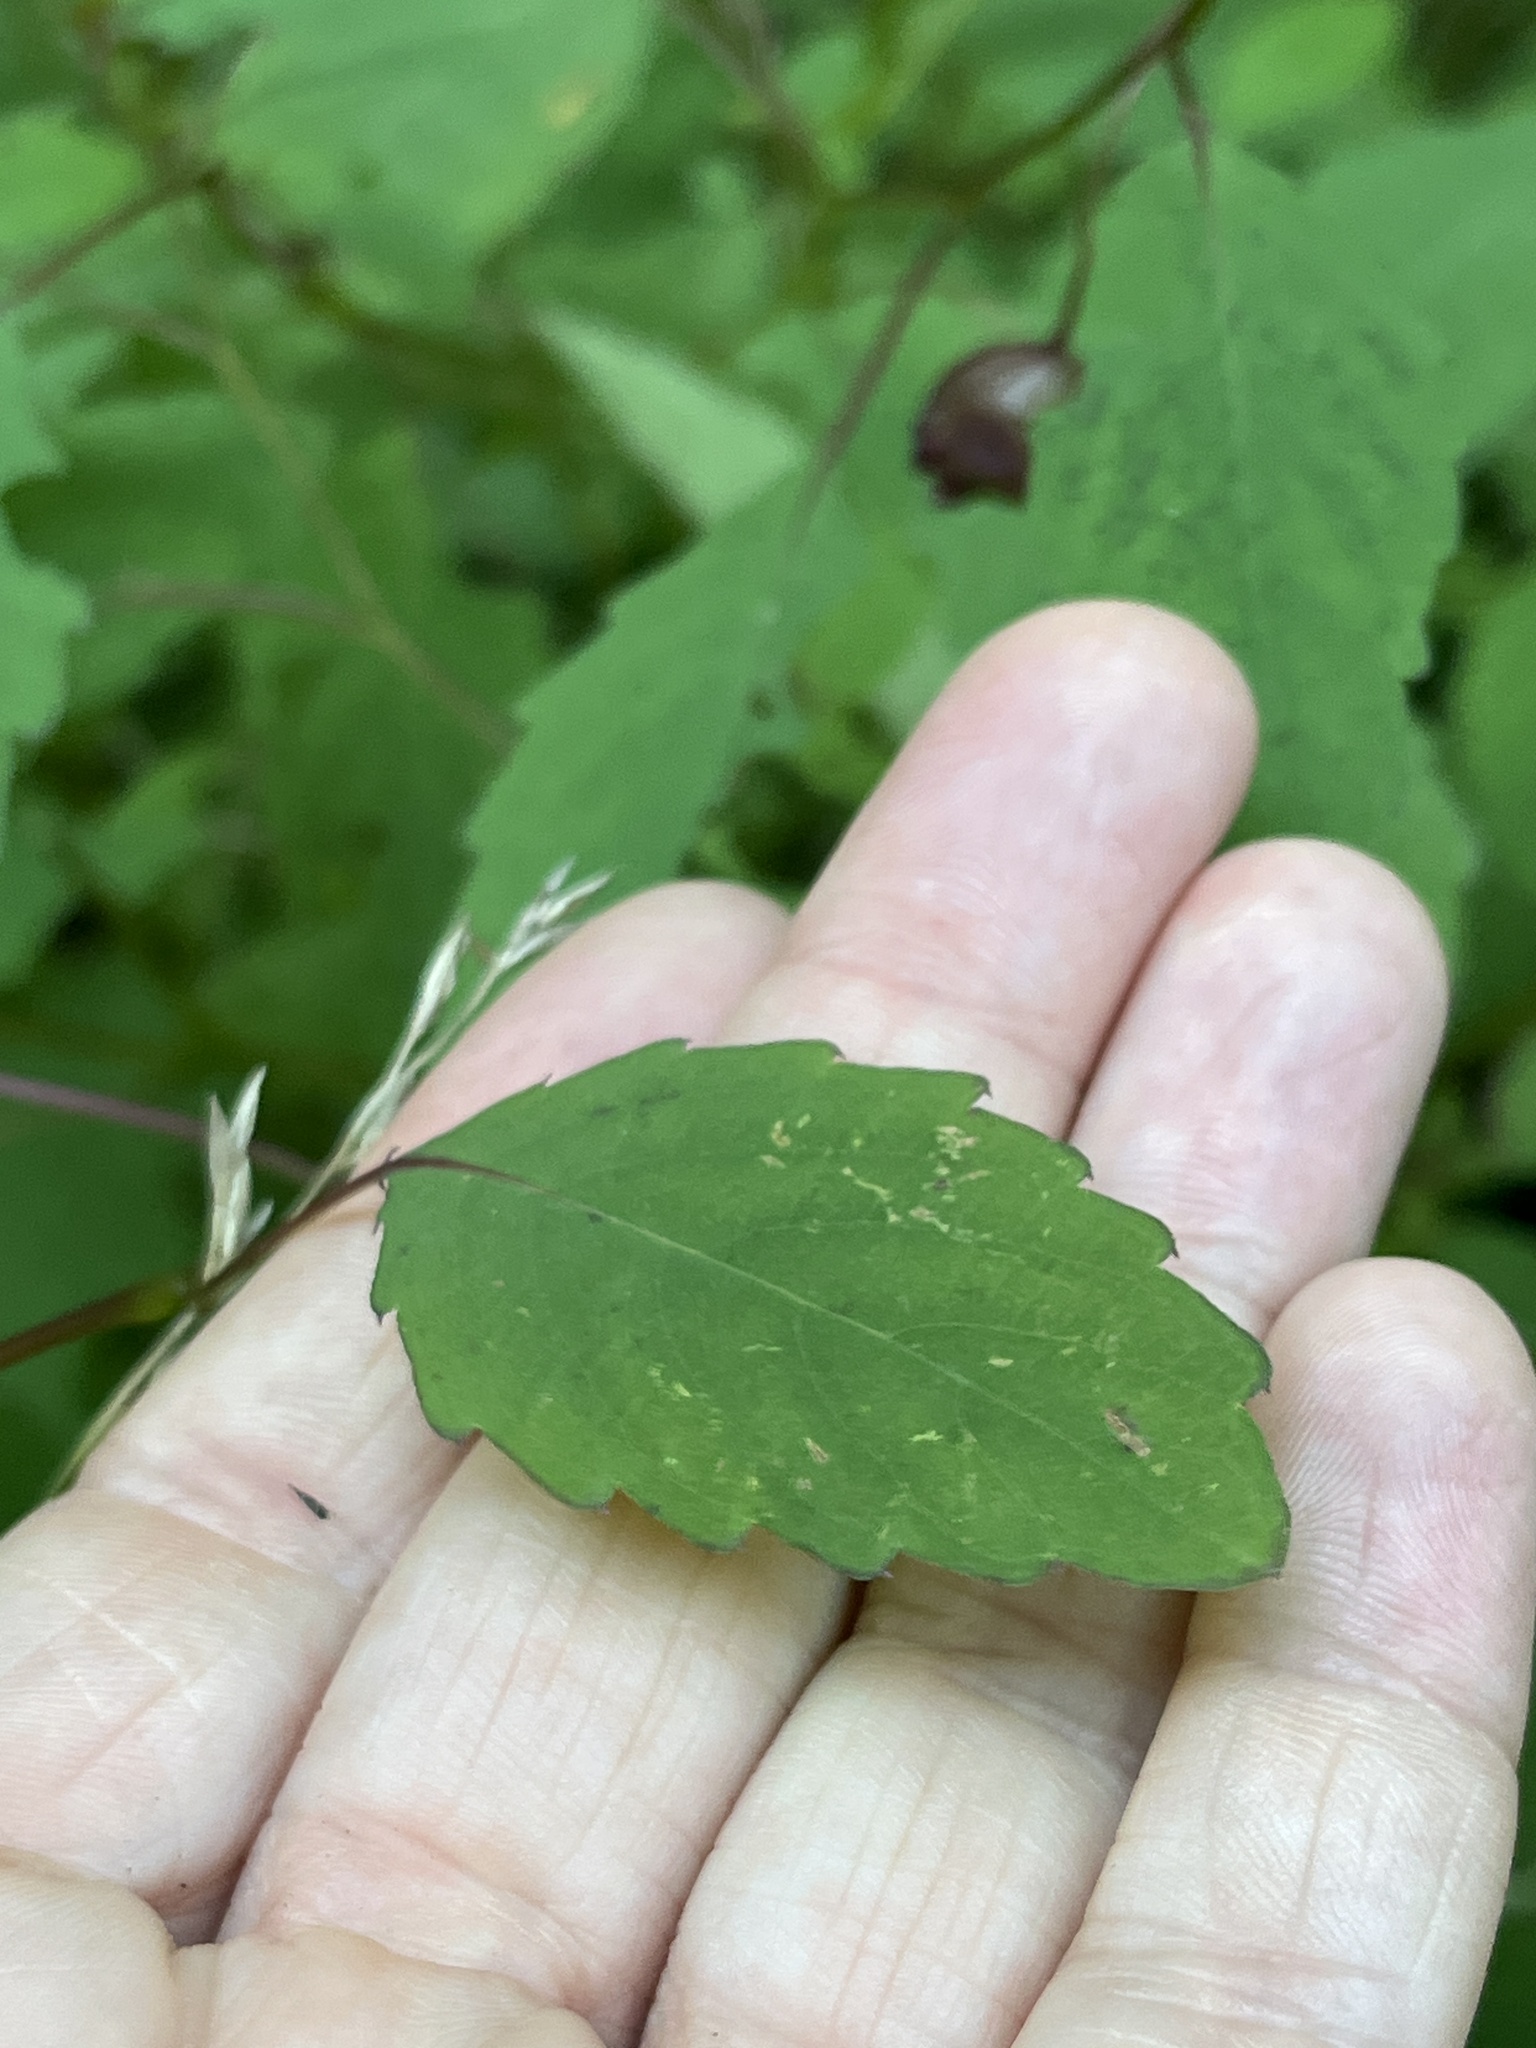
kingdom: Plantae
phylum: Tracheophyta
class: Magnoliopsida
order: Ericales
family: Balsaminaceae
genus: Impatiens
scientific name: Impatiens capensis
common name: Orange balsam
